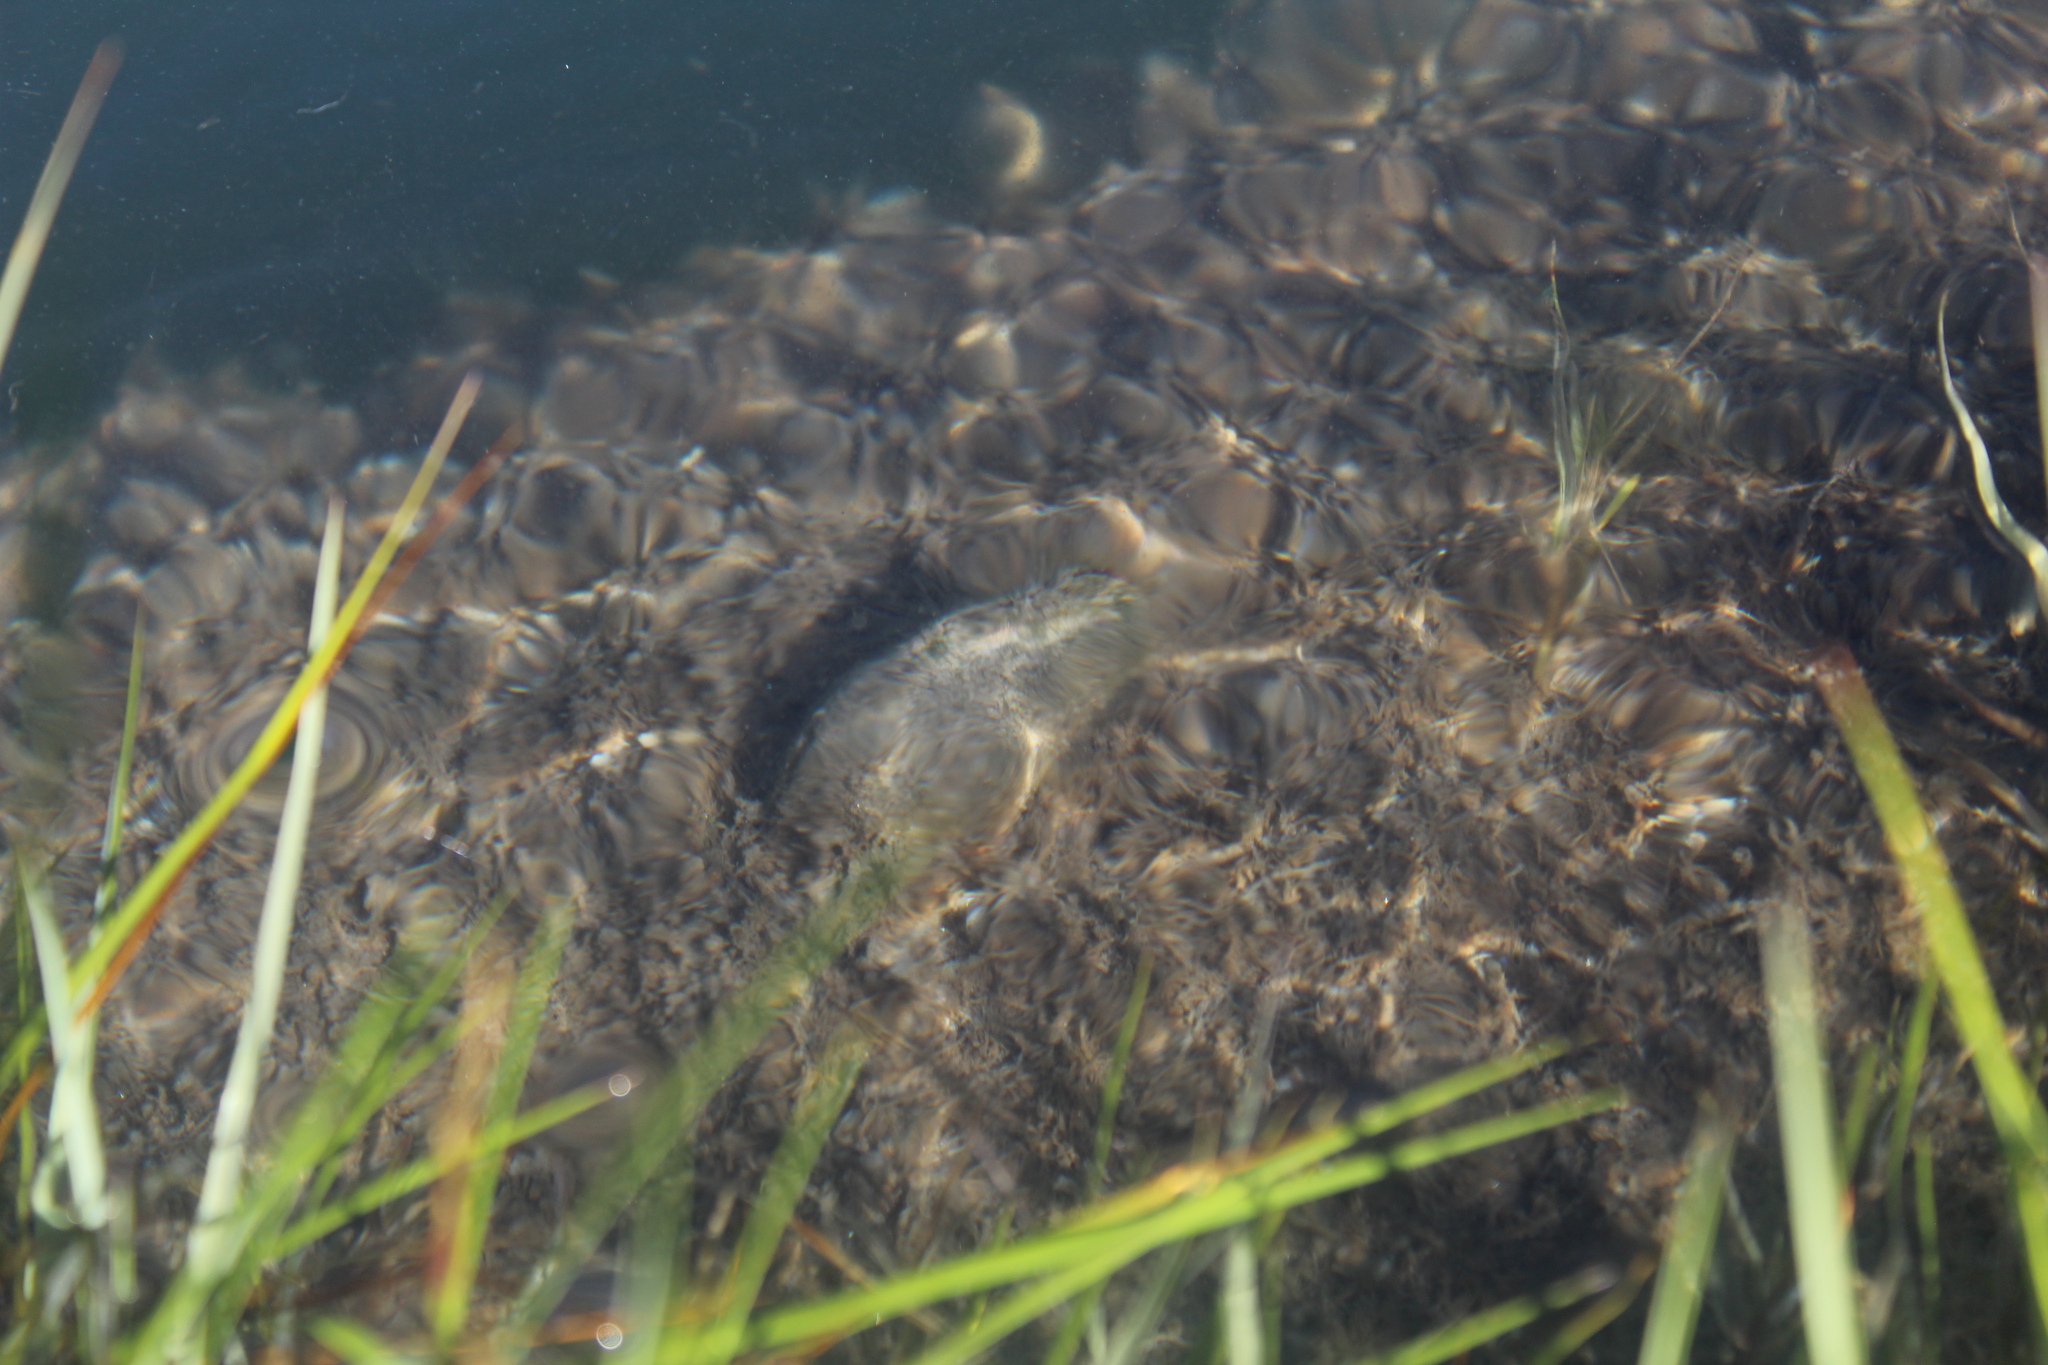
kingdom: Animalia
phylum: Mollusca
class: Bivalvia
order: Mytilida
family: Mytilidae
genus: Geukensia
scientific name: Geukensia demissa
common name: Ribbed mussel
